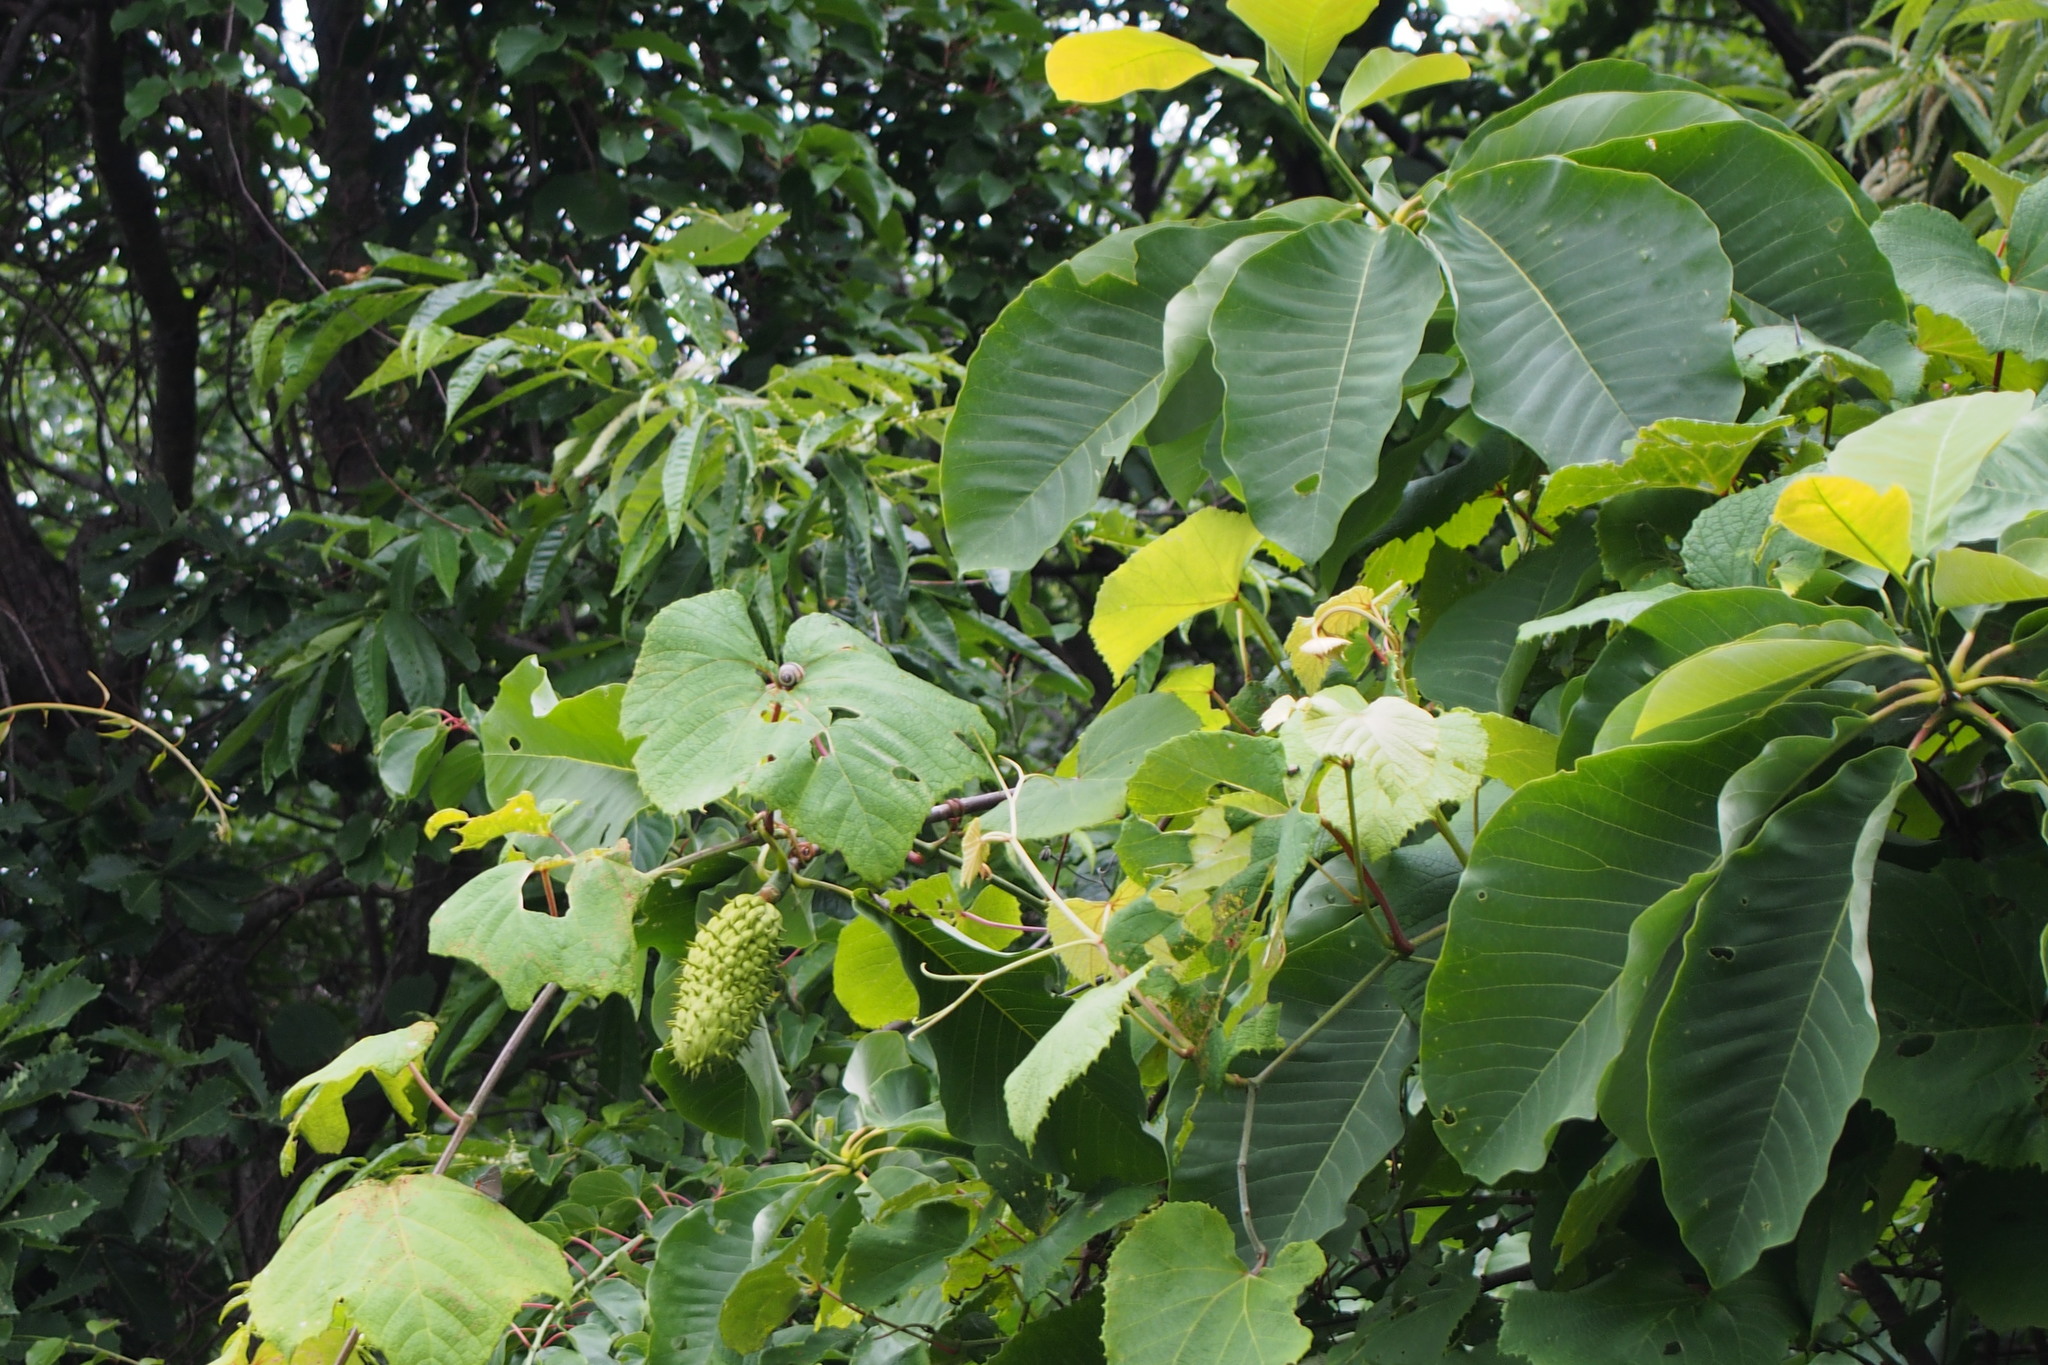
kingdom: Plantae
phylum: Tracheophyta
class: Magnoliopsida
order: Magnoliales
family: Magnoliaceae
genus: Magnolia
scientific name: Magnolia obovata
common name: Japanese whitebark magnolia
